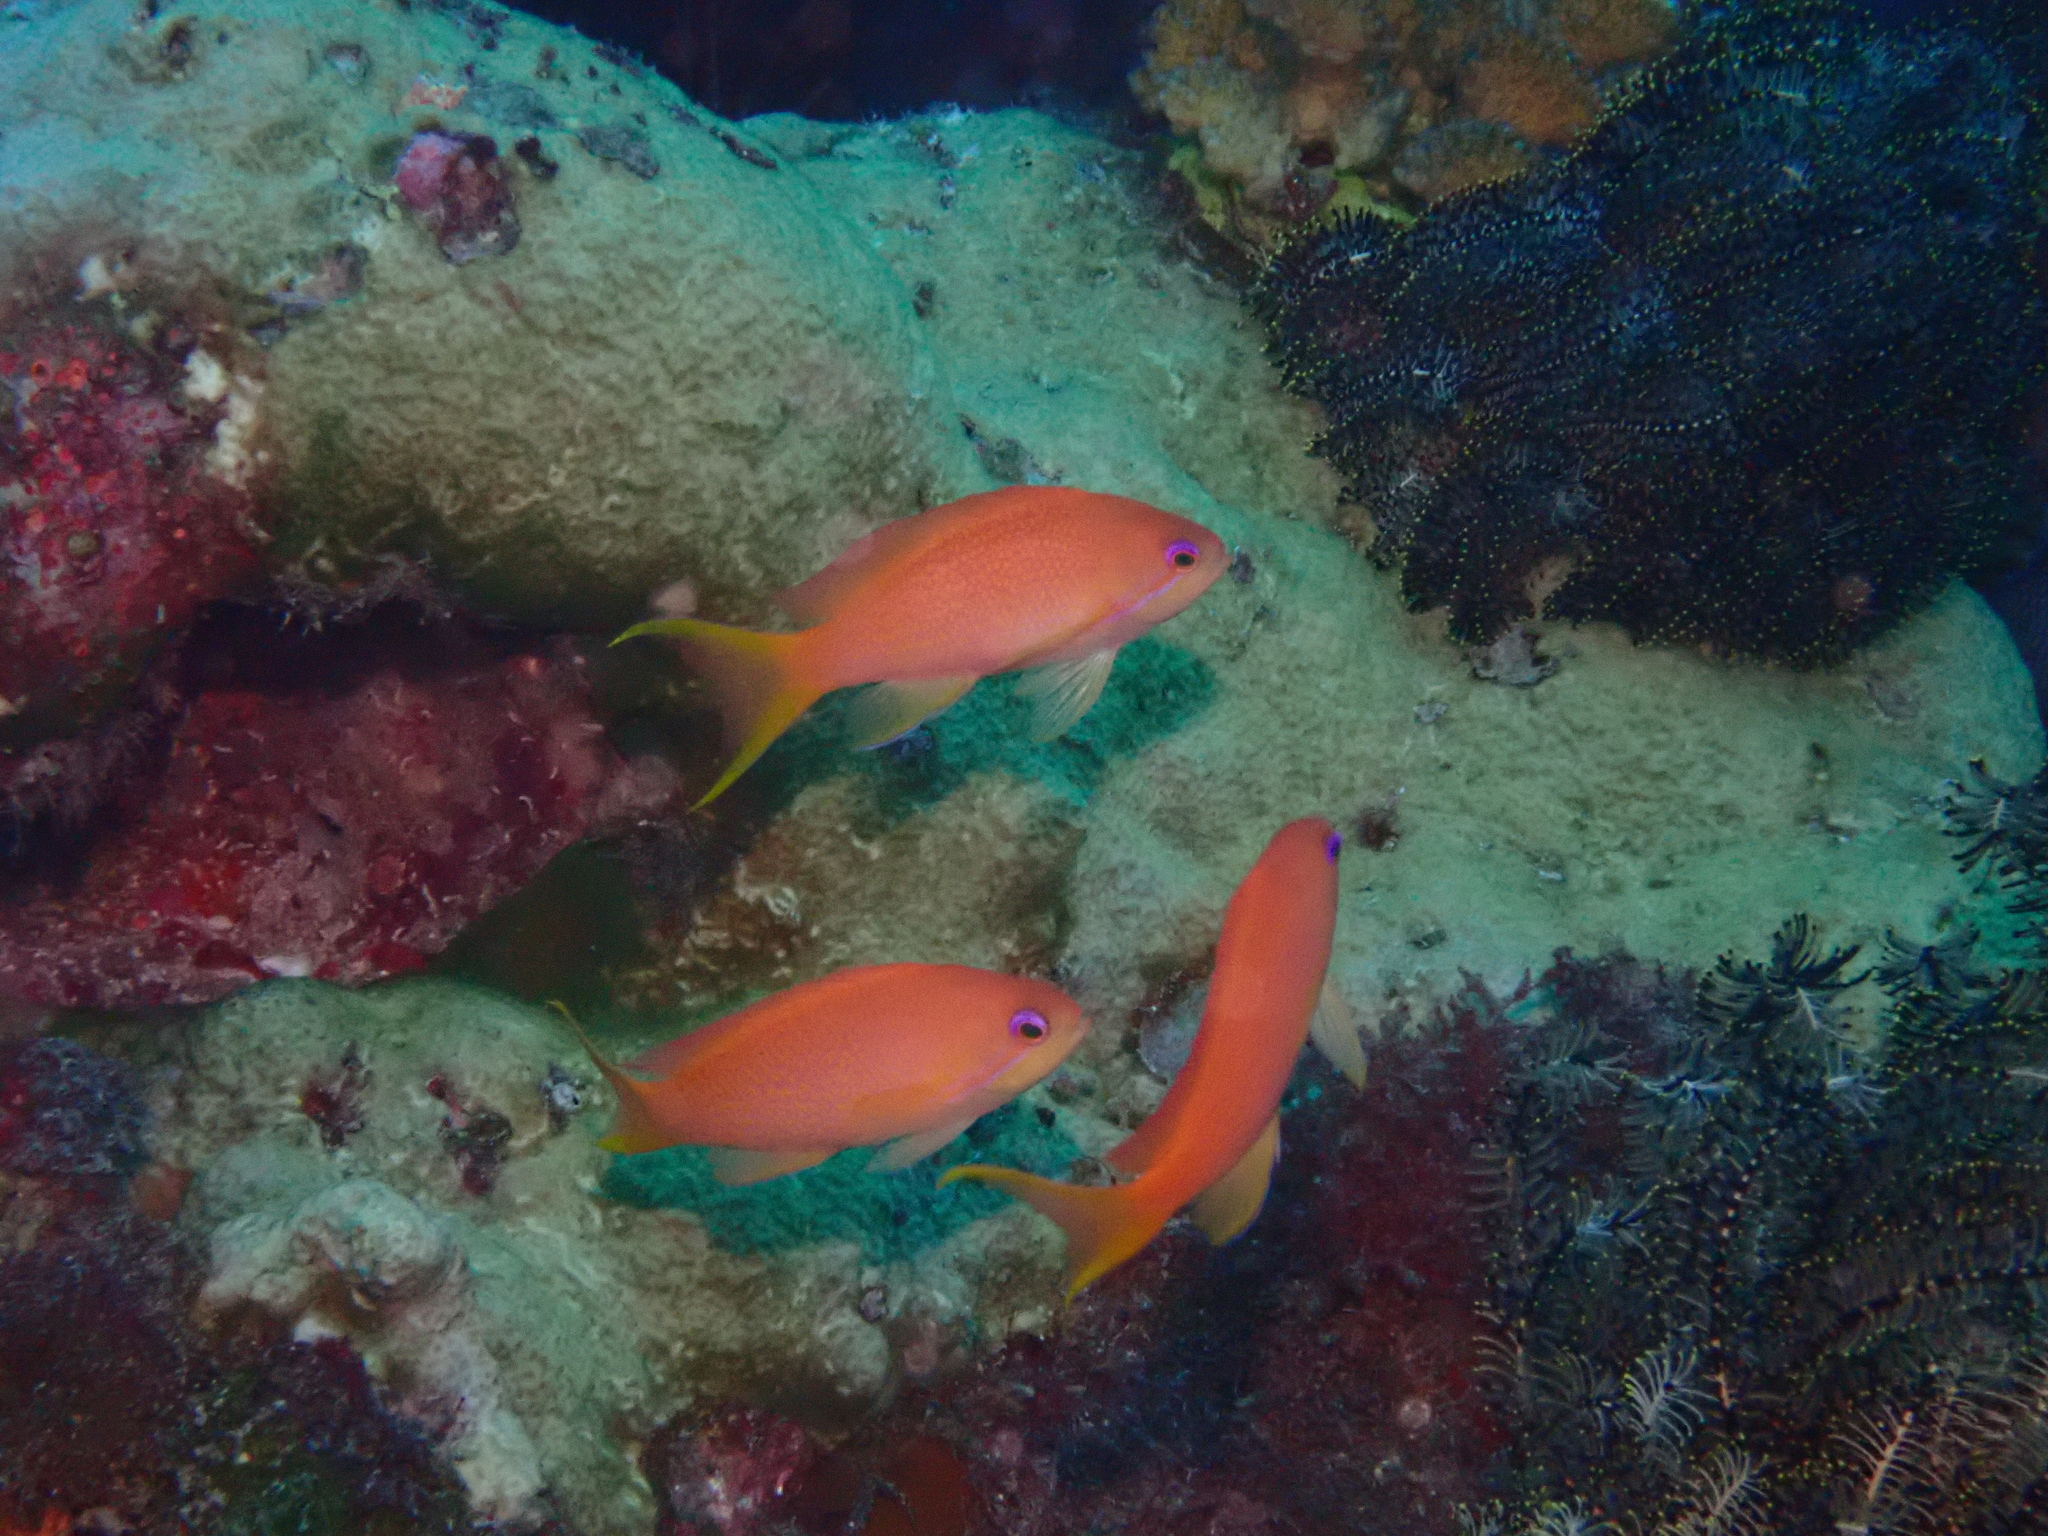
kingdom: Animalia
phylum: Chordata
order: Perciformes
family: Serranidae
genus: Pseudanthias
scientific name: Pseudanthias nobilis
